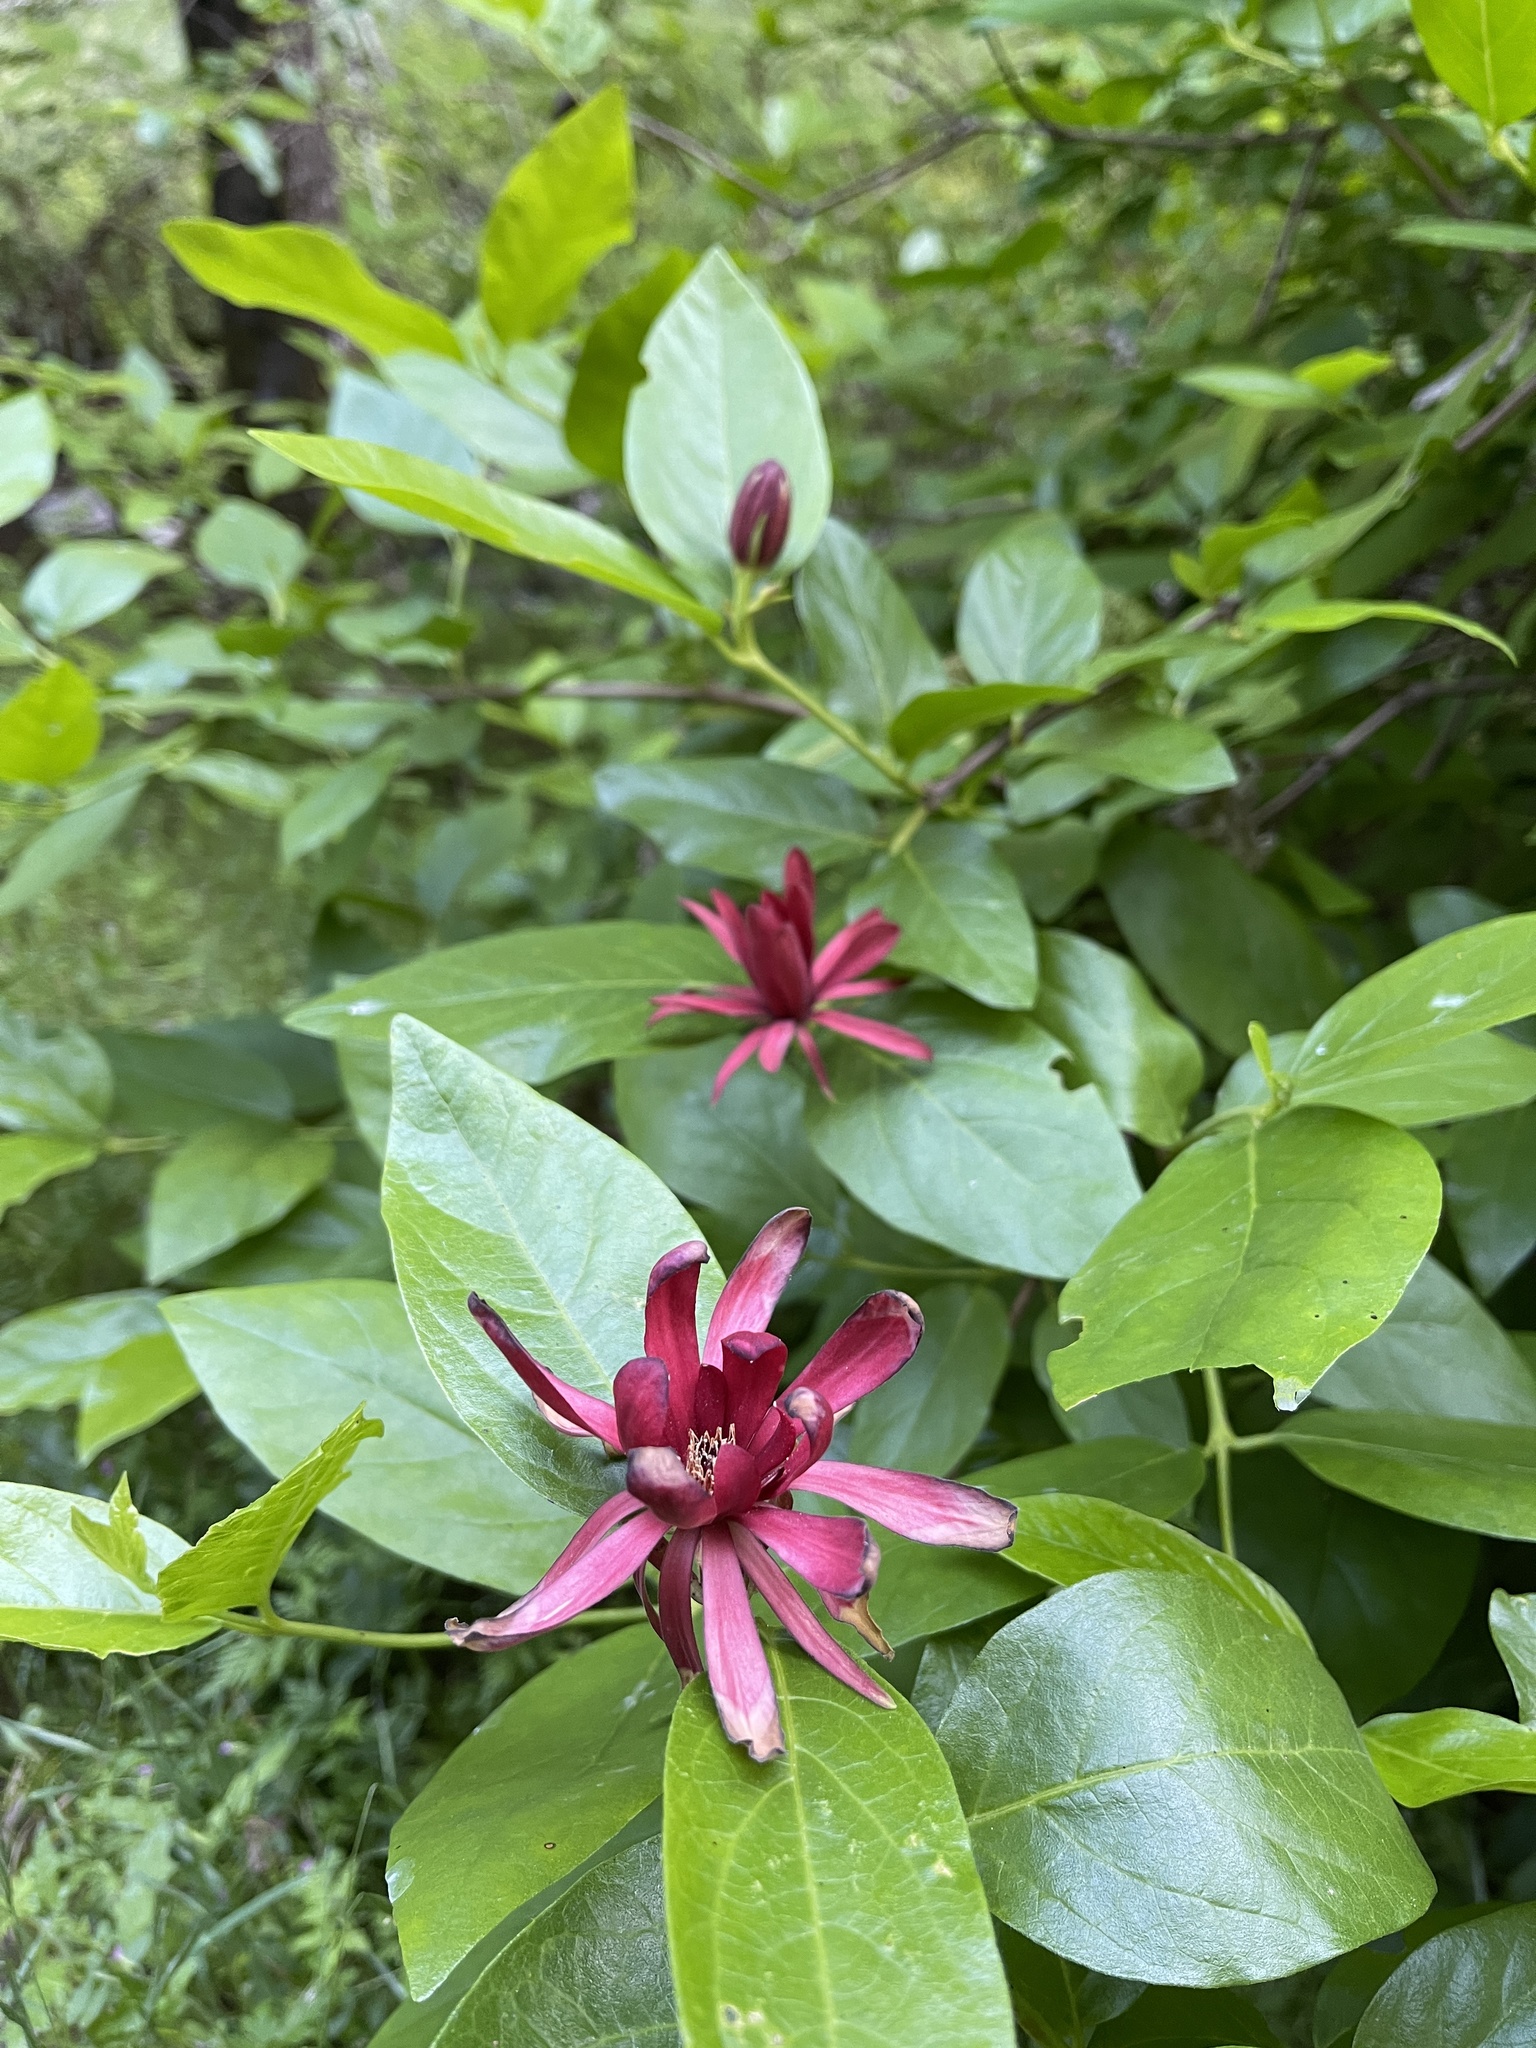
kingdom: Plantae
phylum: Tracheophyta
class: Magnoliopsida
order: Laurales
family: Calycanthaceae
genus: Calycanthus
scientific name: Calycanthus occidentalis
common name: California spicebush
